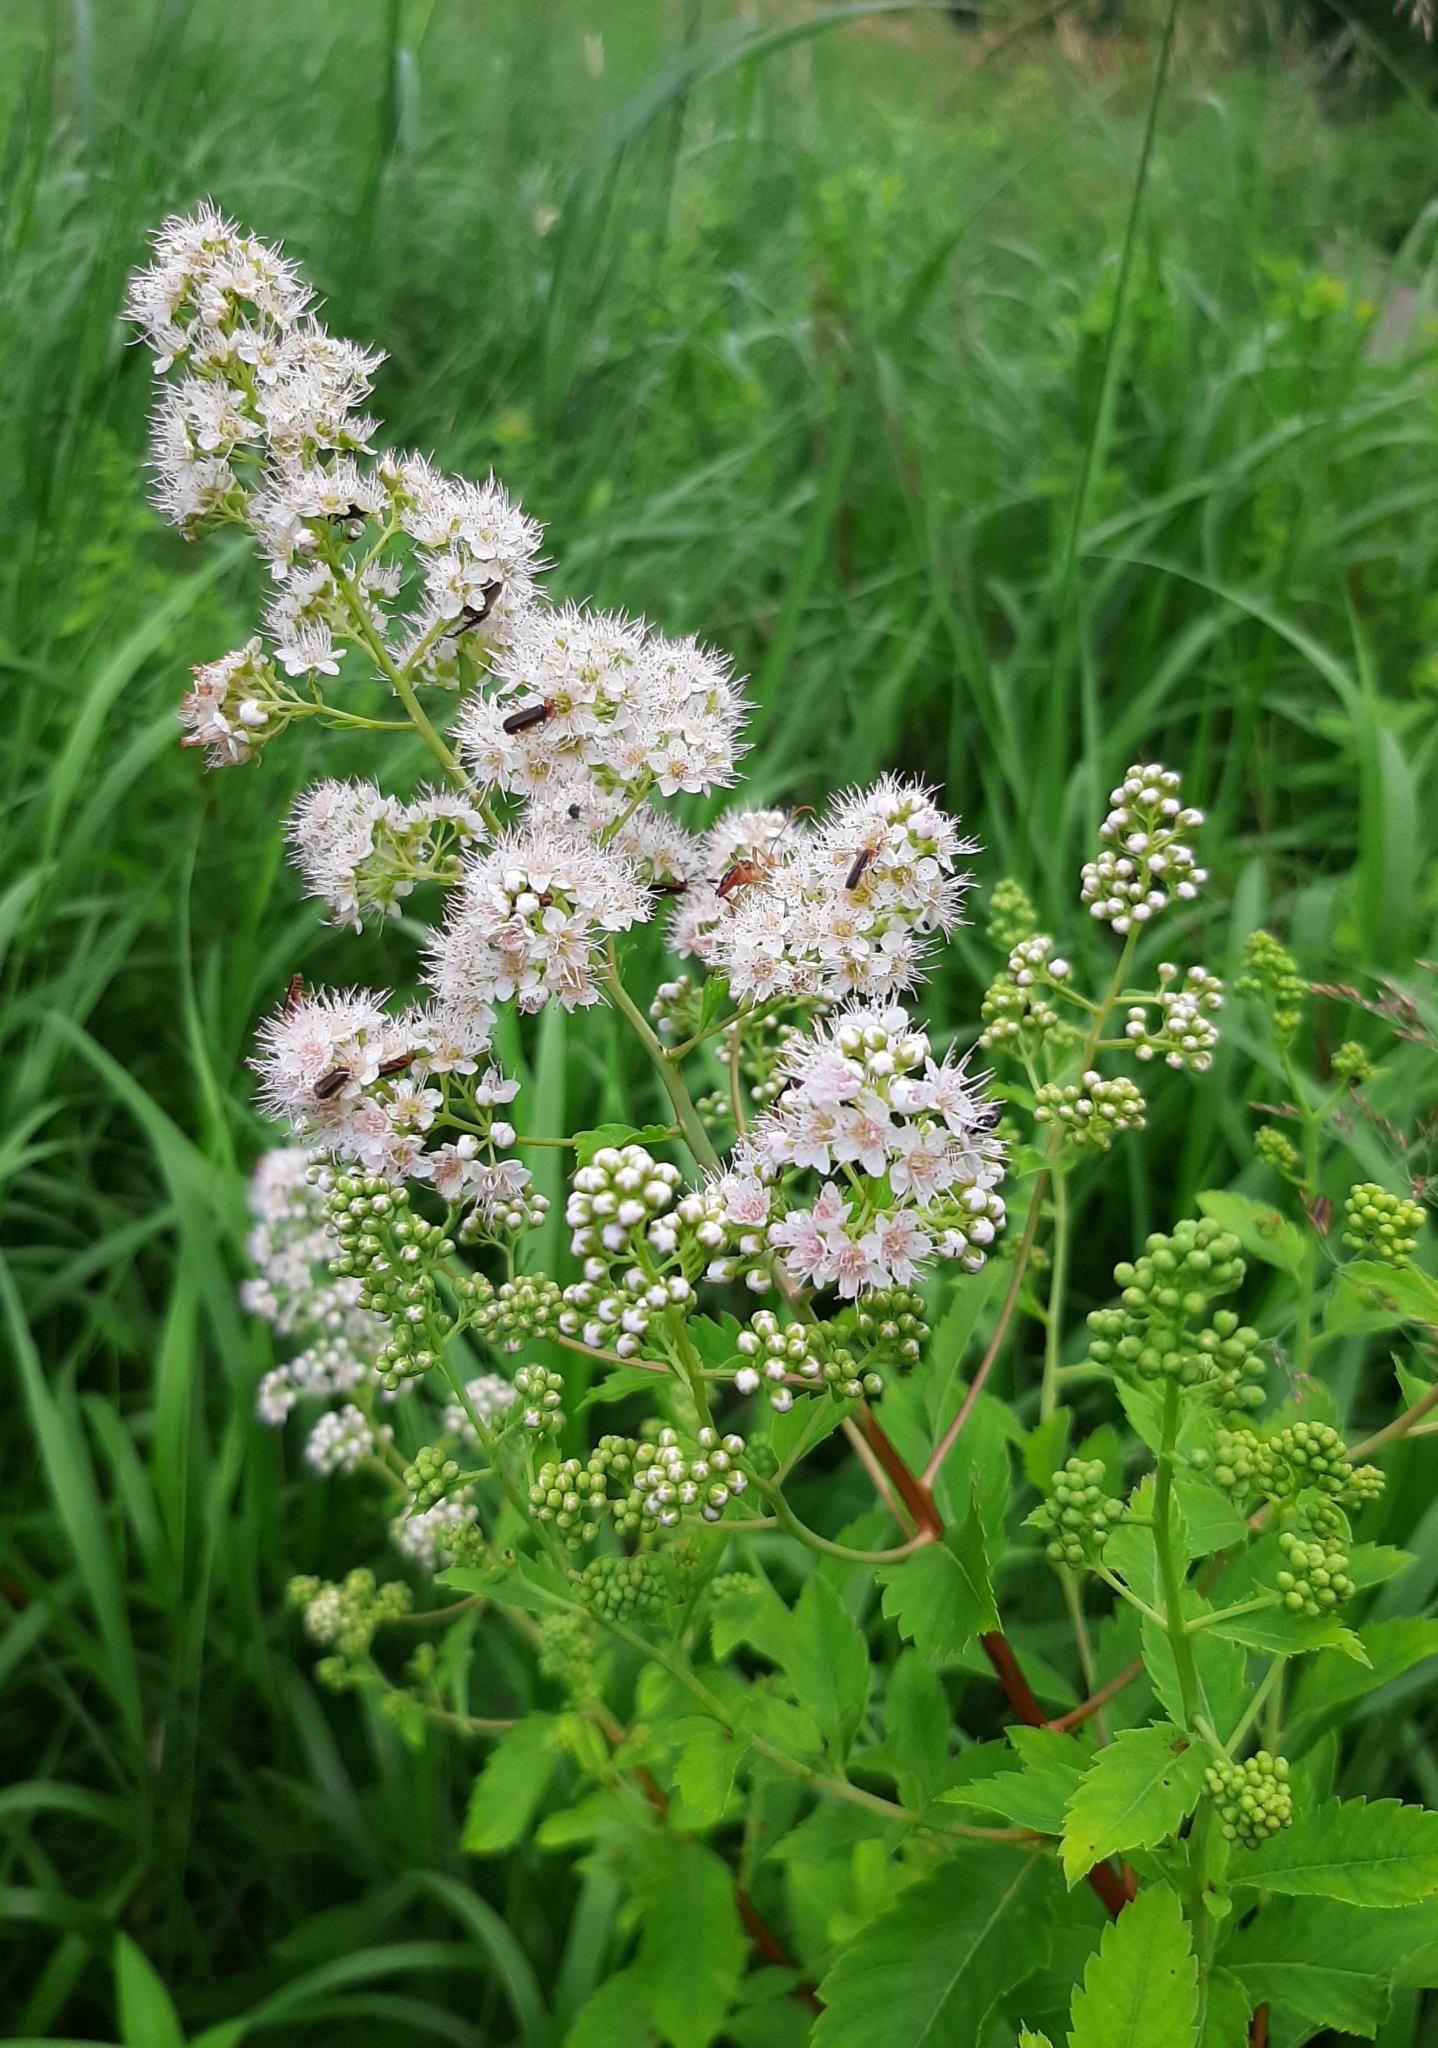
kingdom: Plantae
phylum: Tracheophyta
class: Magnoliopsida
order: Rosales
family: Rosaceae
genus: Spiraea
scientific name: Spiraea alba
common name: Pale bridewort
